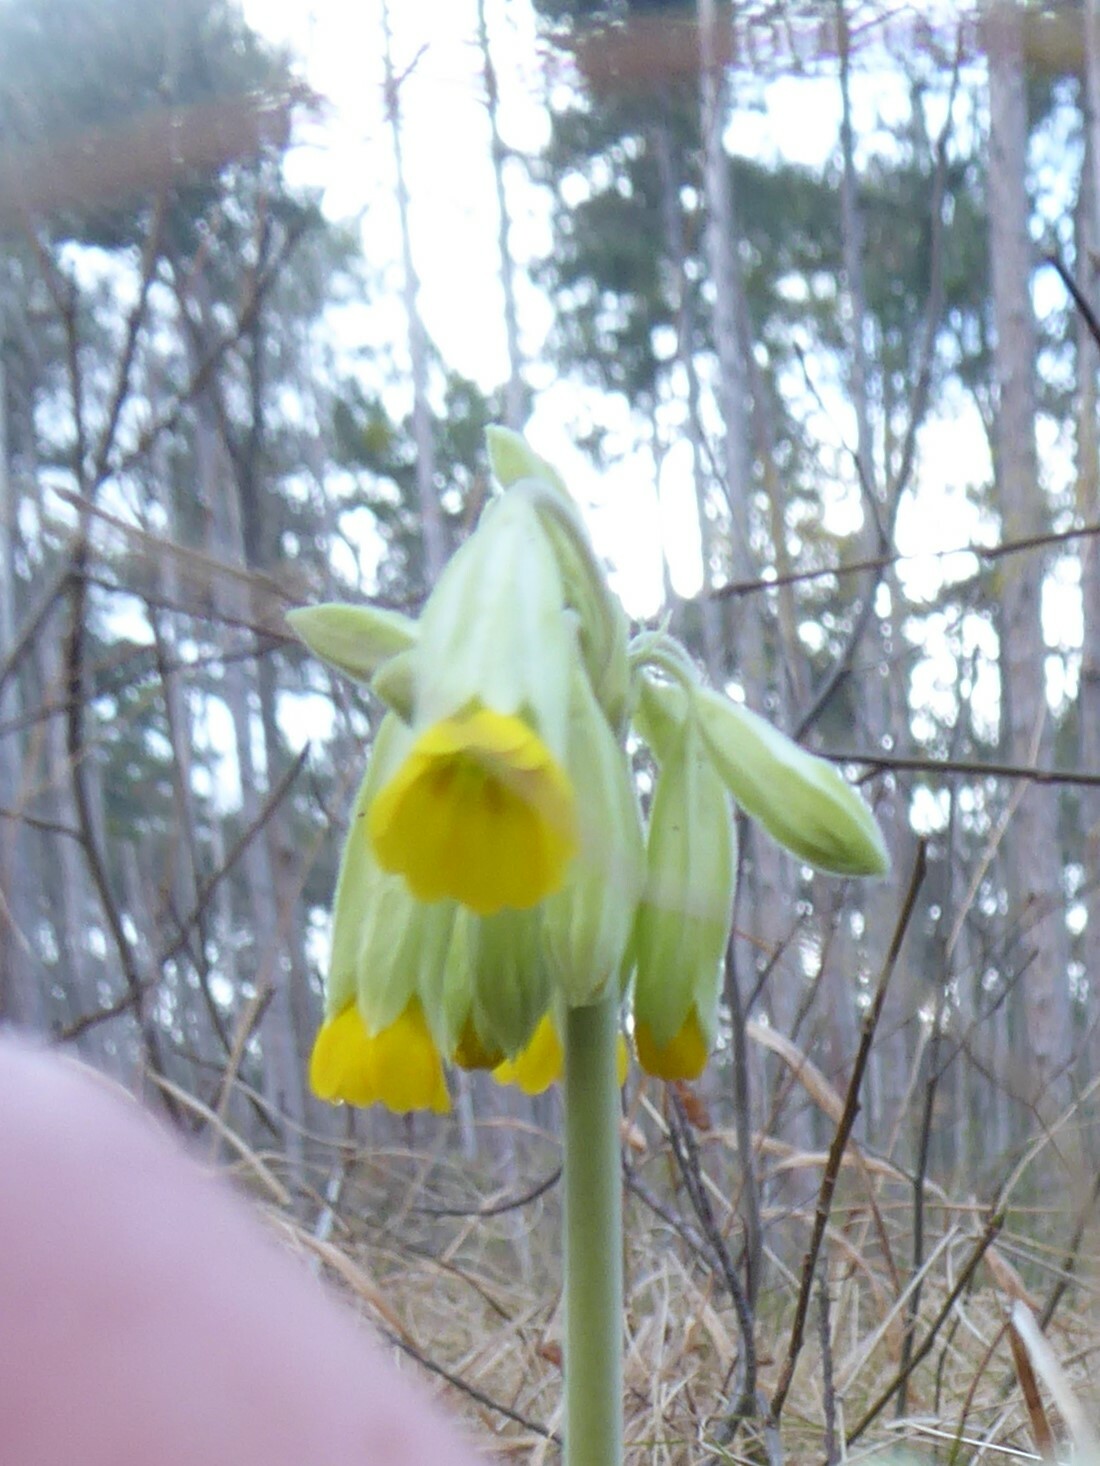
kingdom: Plantae
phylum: Tracheophyta
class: Magnoliopsida
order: Ericales
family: Primulaceae
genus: Primula
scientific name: Primula veris
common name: Cowslip
